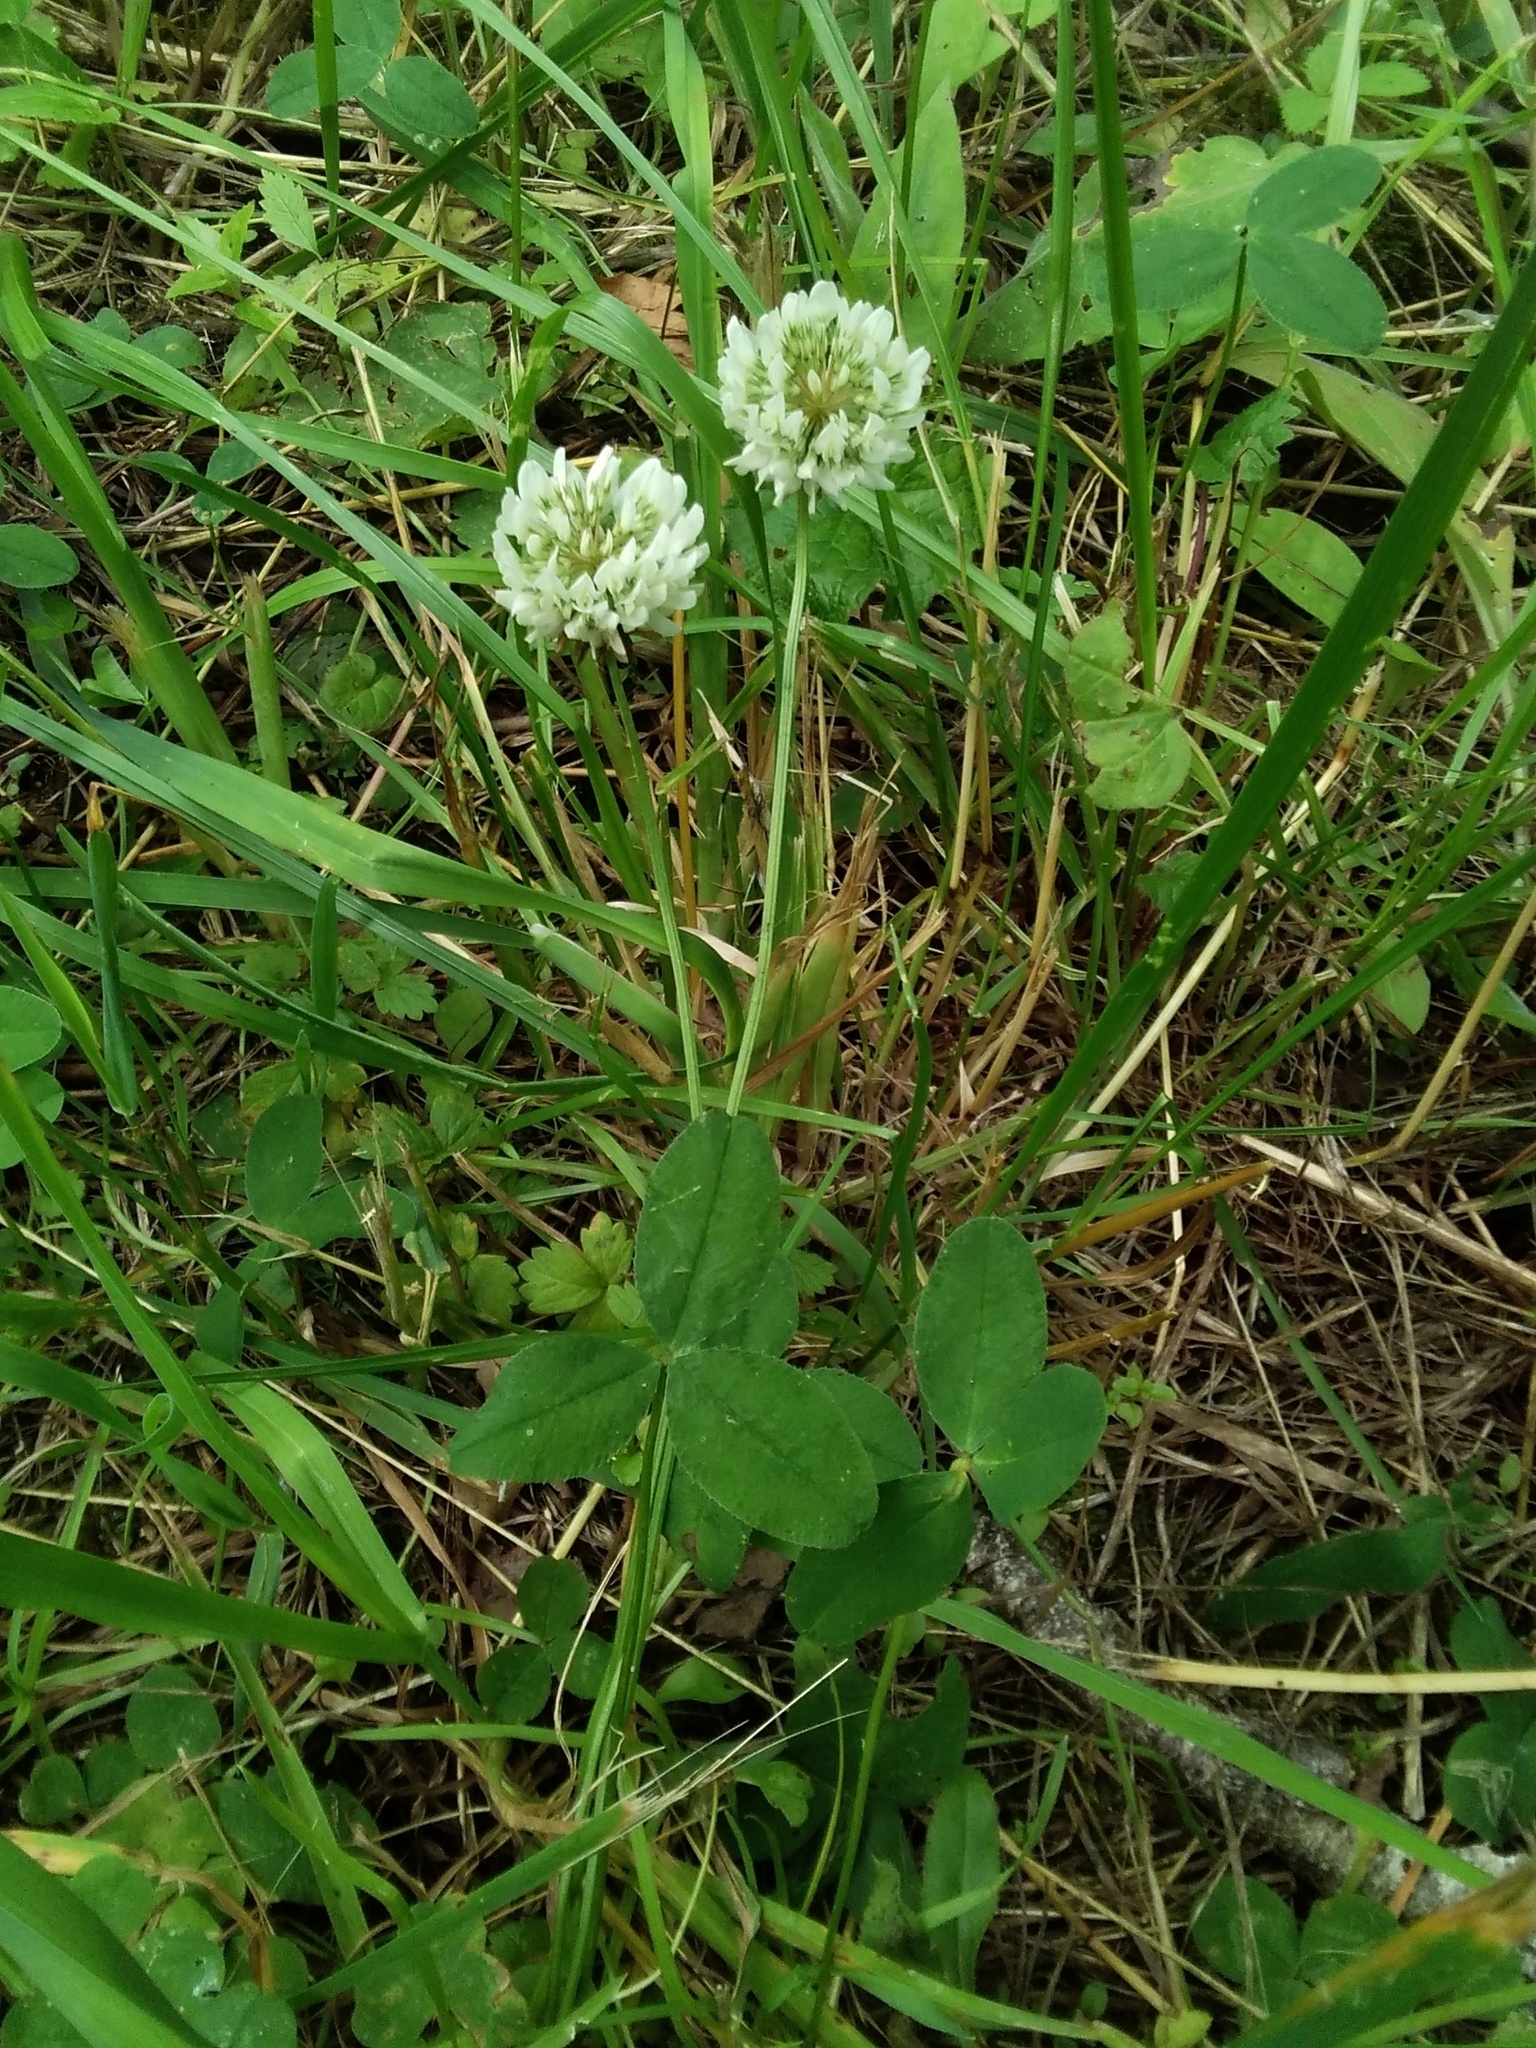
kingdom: Plantae
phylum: Tracheophyta
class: Magnoliopsida
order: Fabales
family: Fabaceae
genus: Trifolium
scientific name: Trifolium repens
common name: White clover
